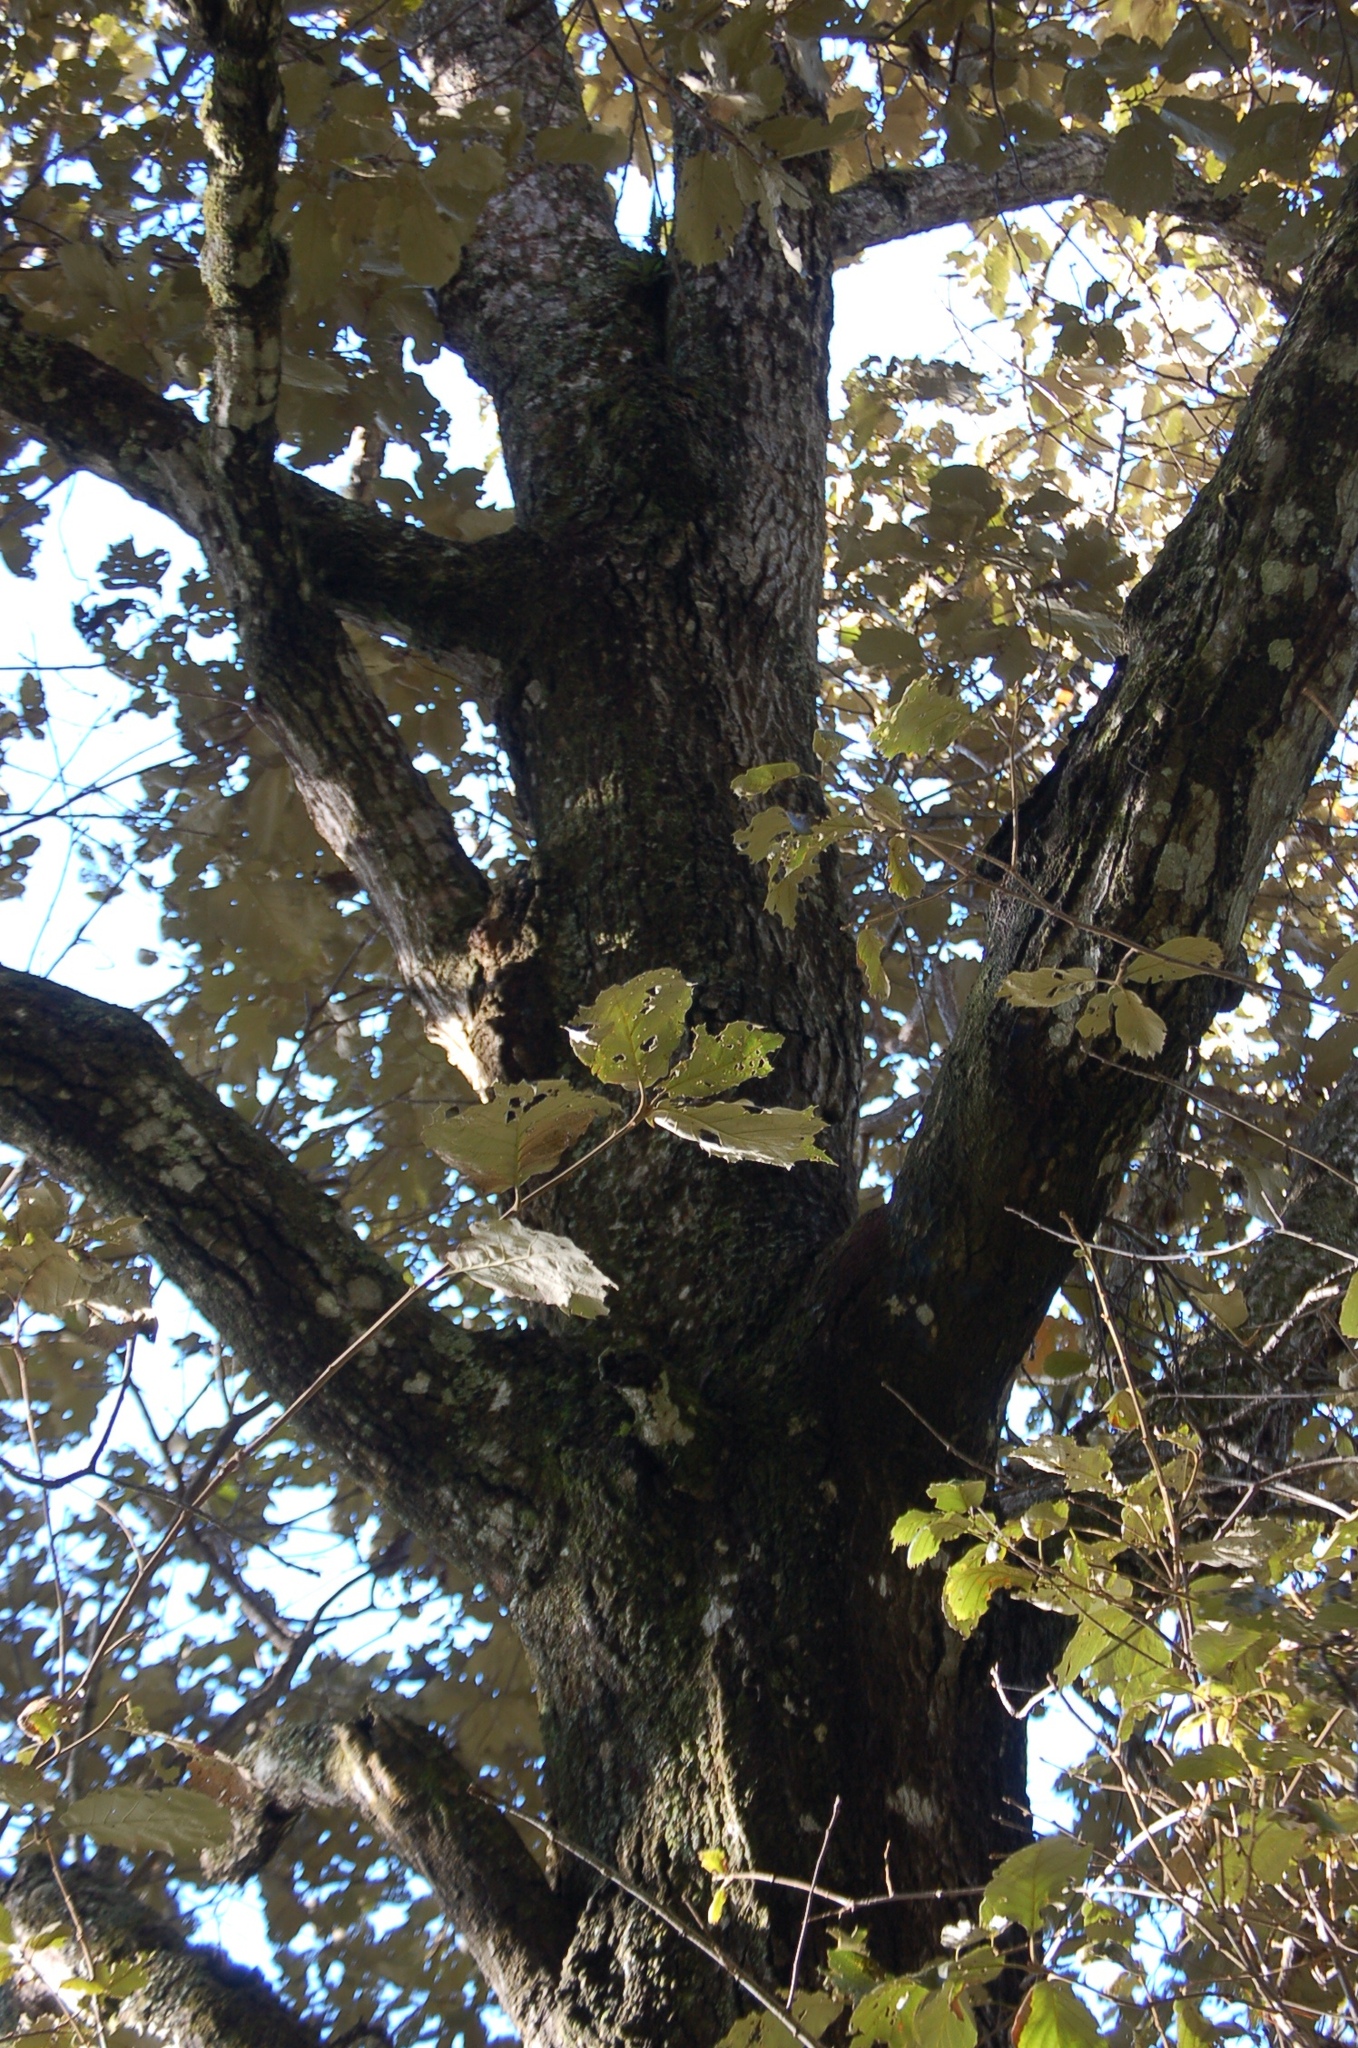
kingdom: Plantae
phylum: Tracheophyta
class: Magnoliopsida
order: Fagales
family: Fagaceae
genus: Quercus
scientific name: Quercus calophylla
